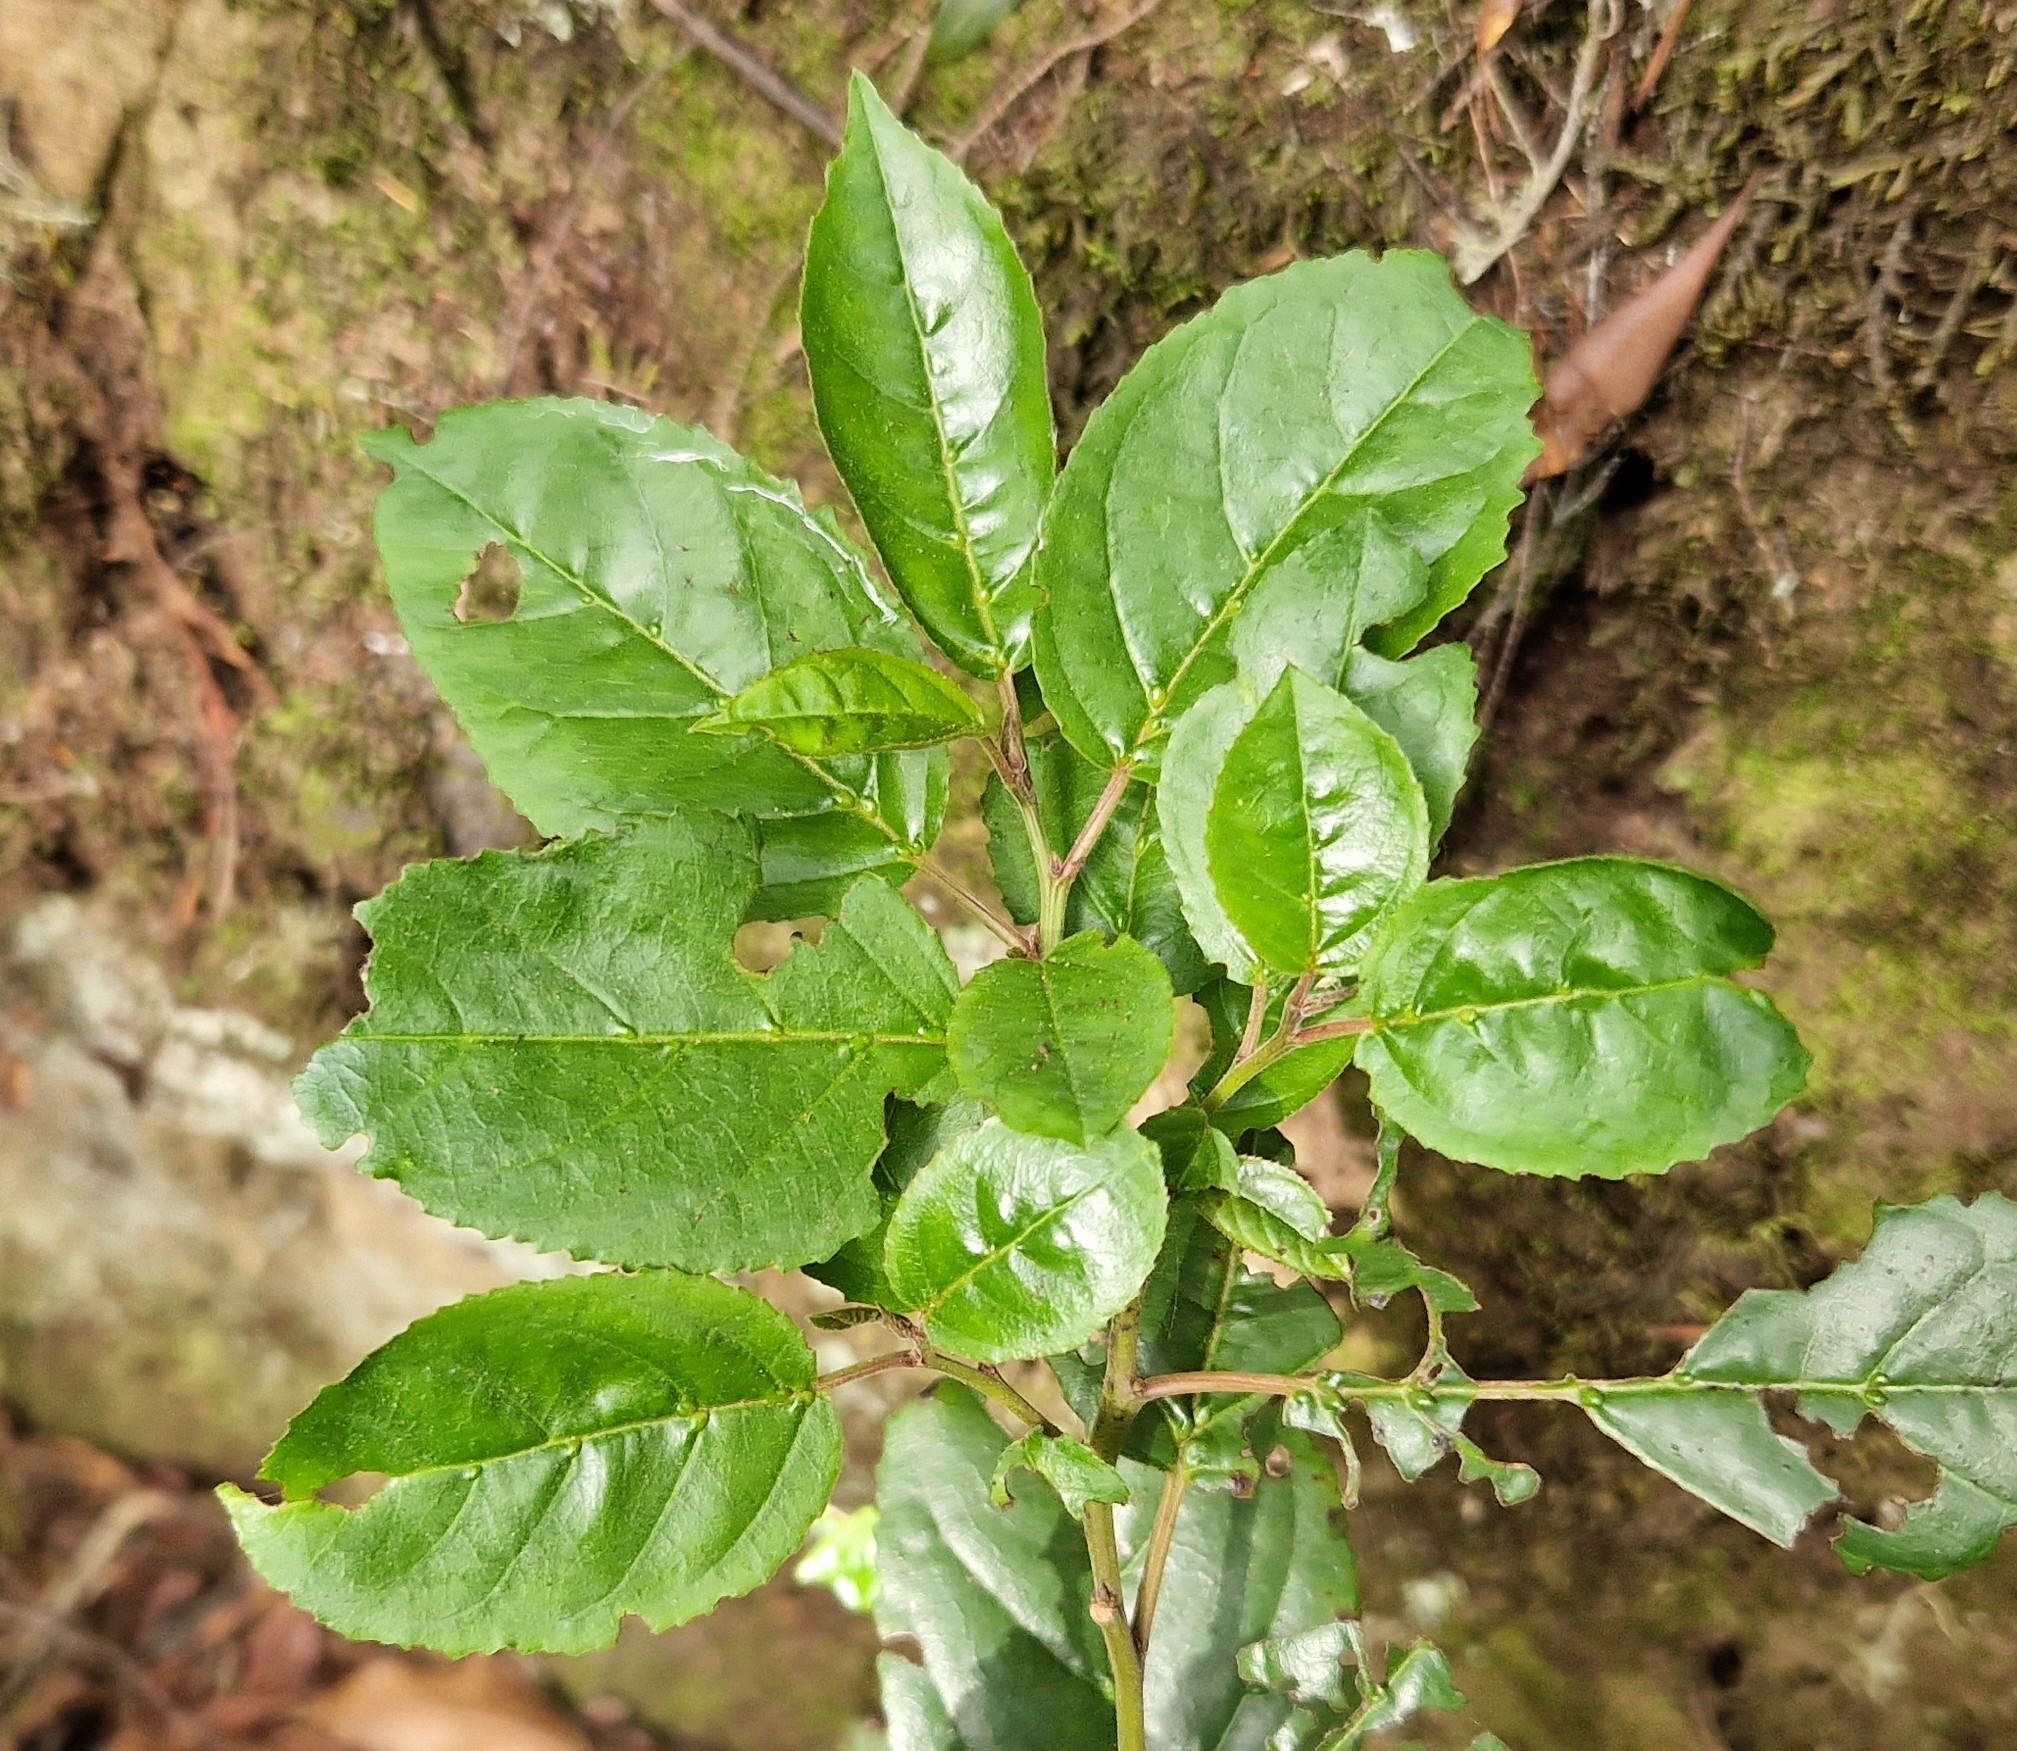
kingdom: Plantae
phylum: Tracheophyta
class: Magnoliopsida
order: Rosales
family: Rhamnaceae
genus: Rhamnus
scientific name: Rhamnus glandulosa
